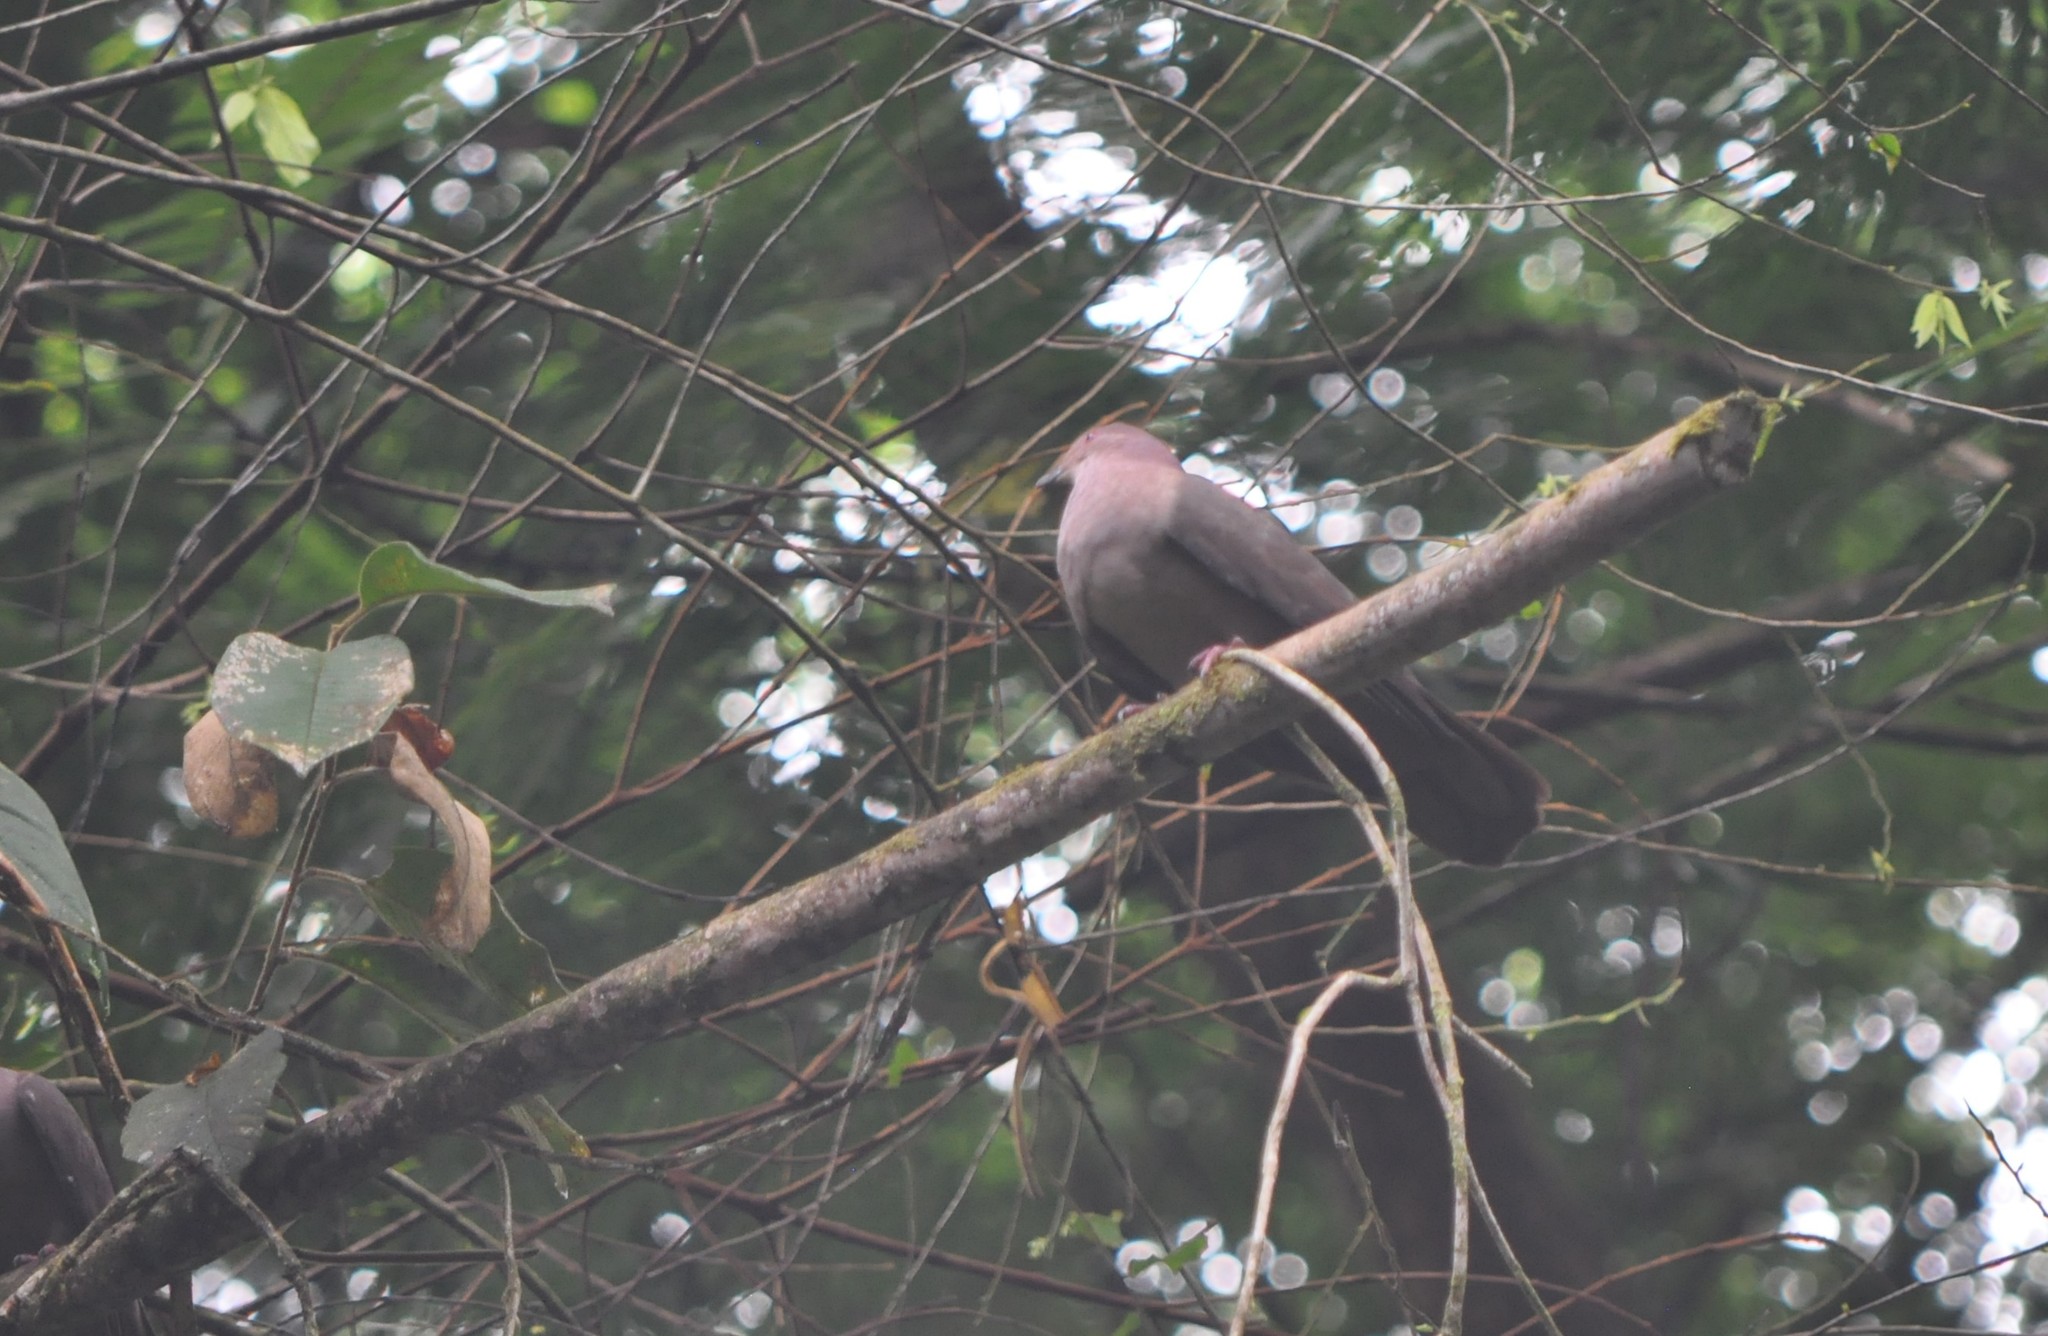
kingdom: Animalia
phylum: Chordata
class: Aves
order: Columbiformes
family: Columbidae
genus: Patagioenas
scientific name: Patagioenas nigrirostris
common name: Short-billed pigeon
